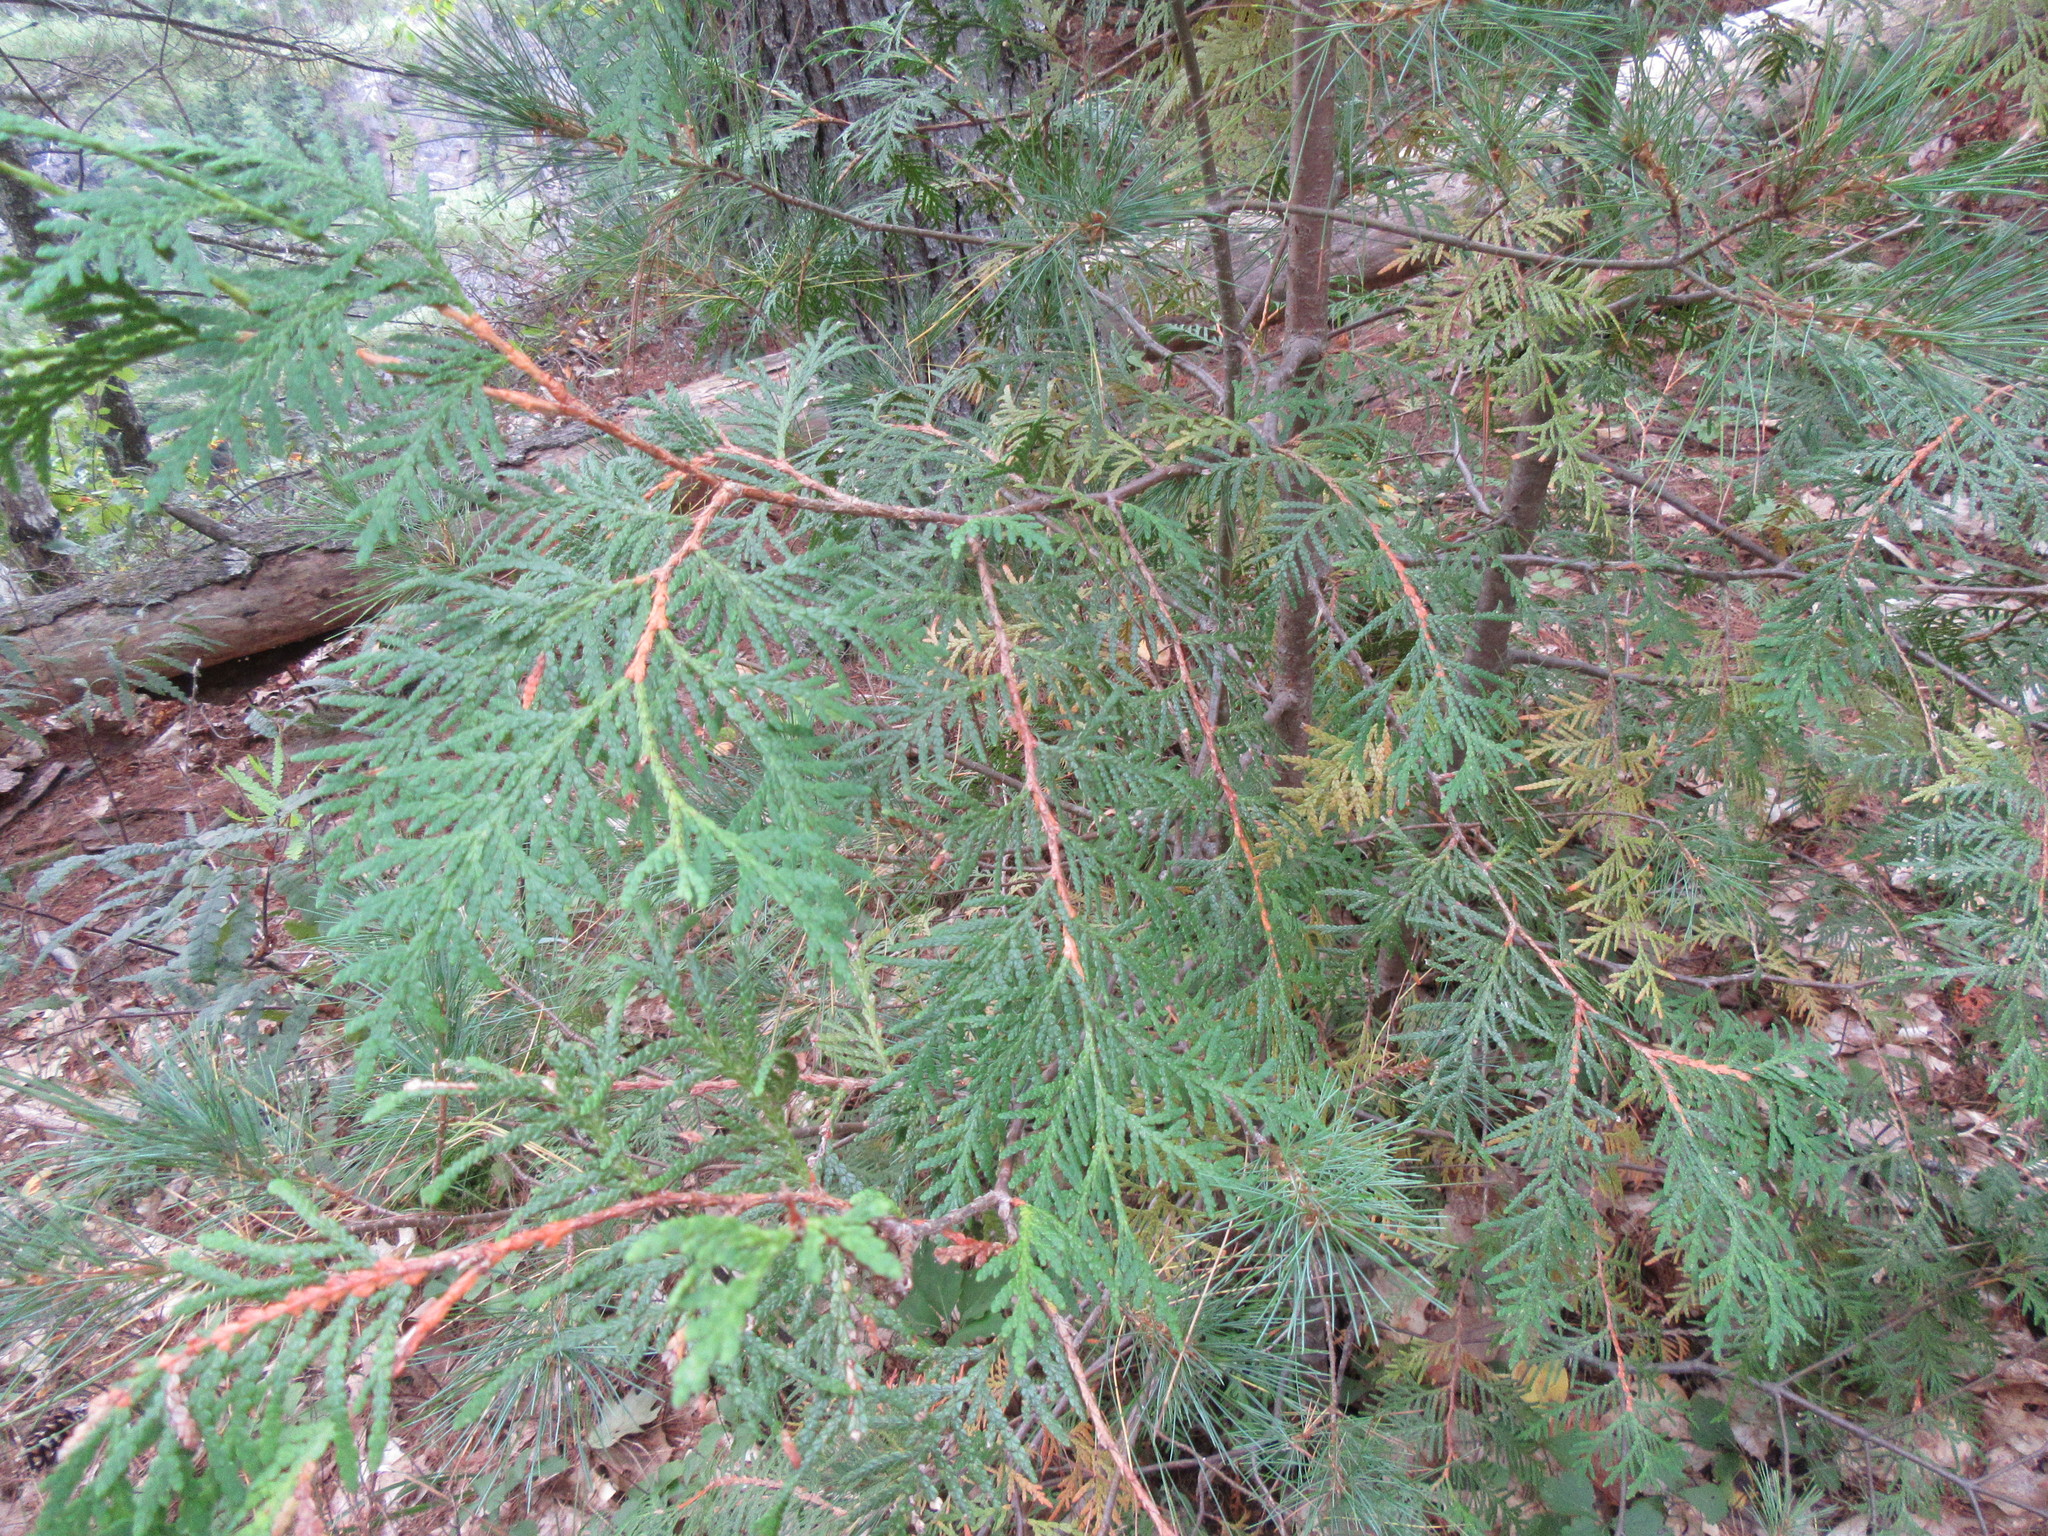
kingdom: Plantae
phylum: Tracheophyta
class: Pinopsida
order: Pinales
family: Cupressaceae
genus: Thuja
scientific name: Thuja occidentalis
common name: Northern white-cedar
